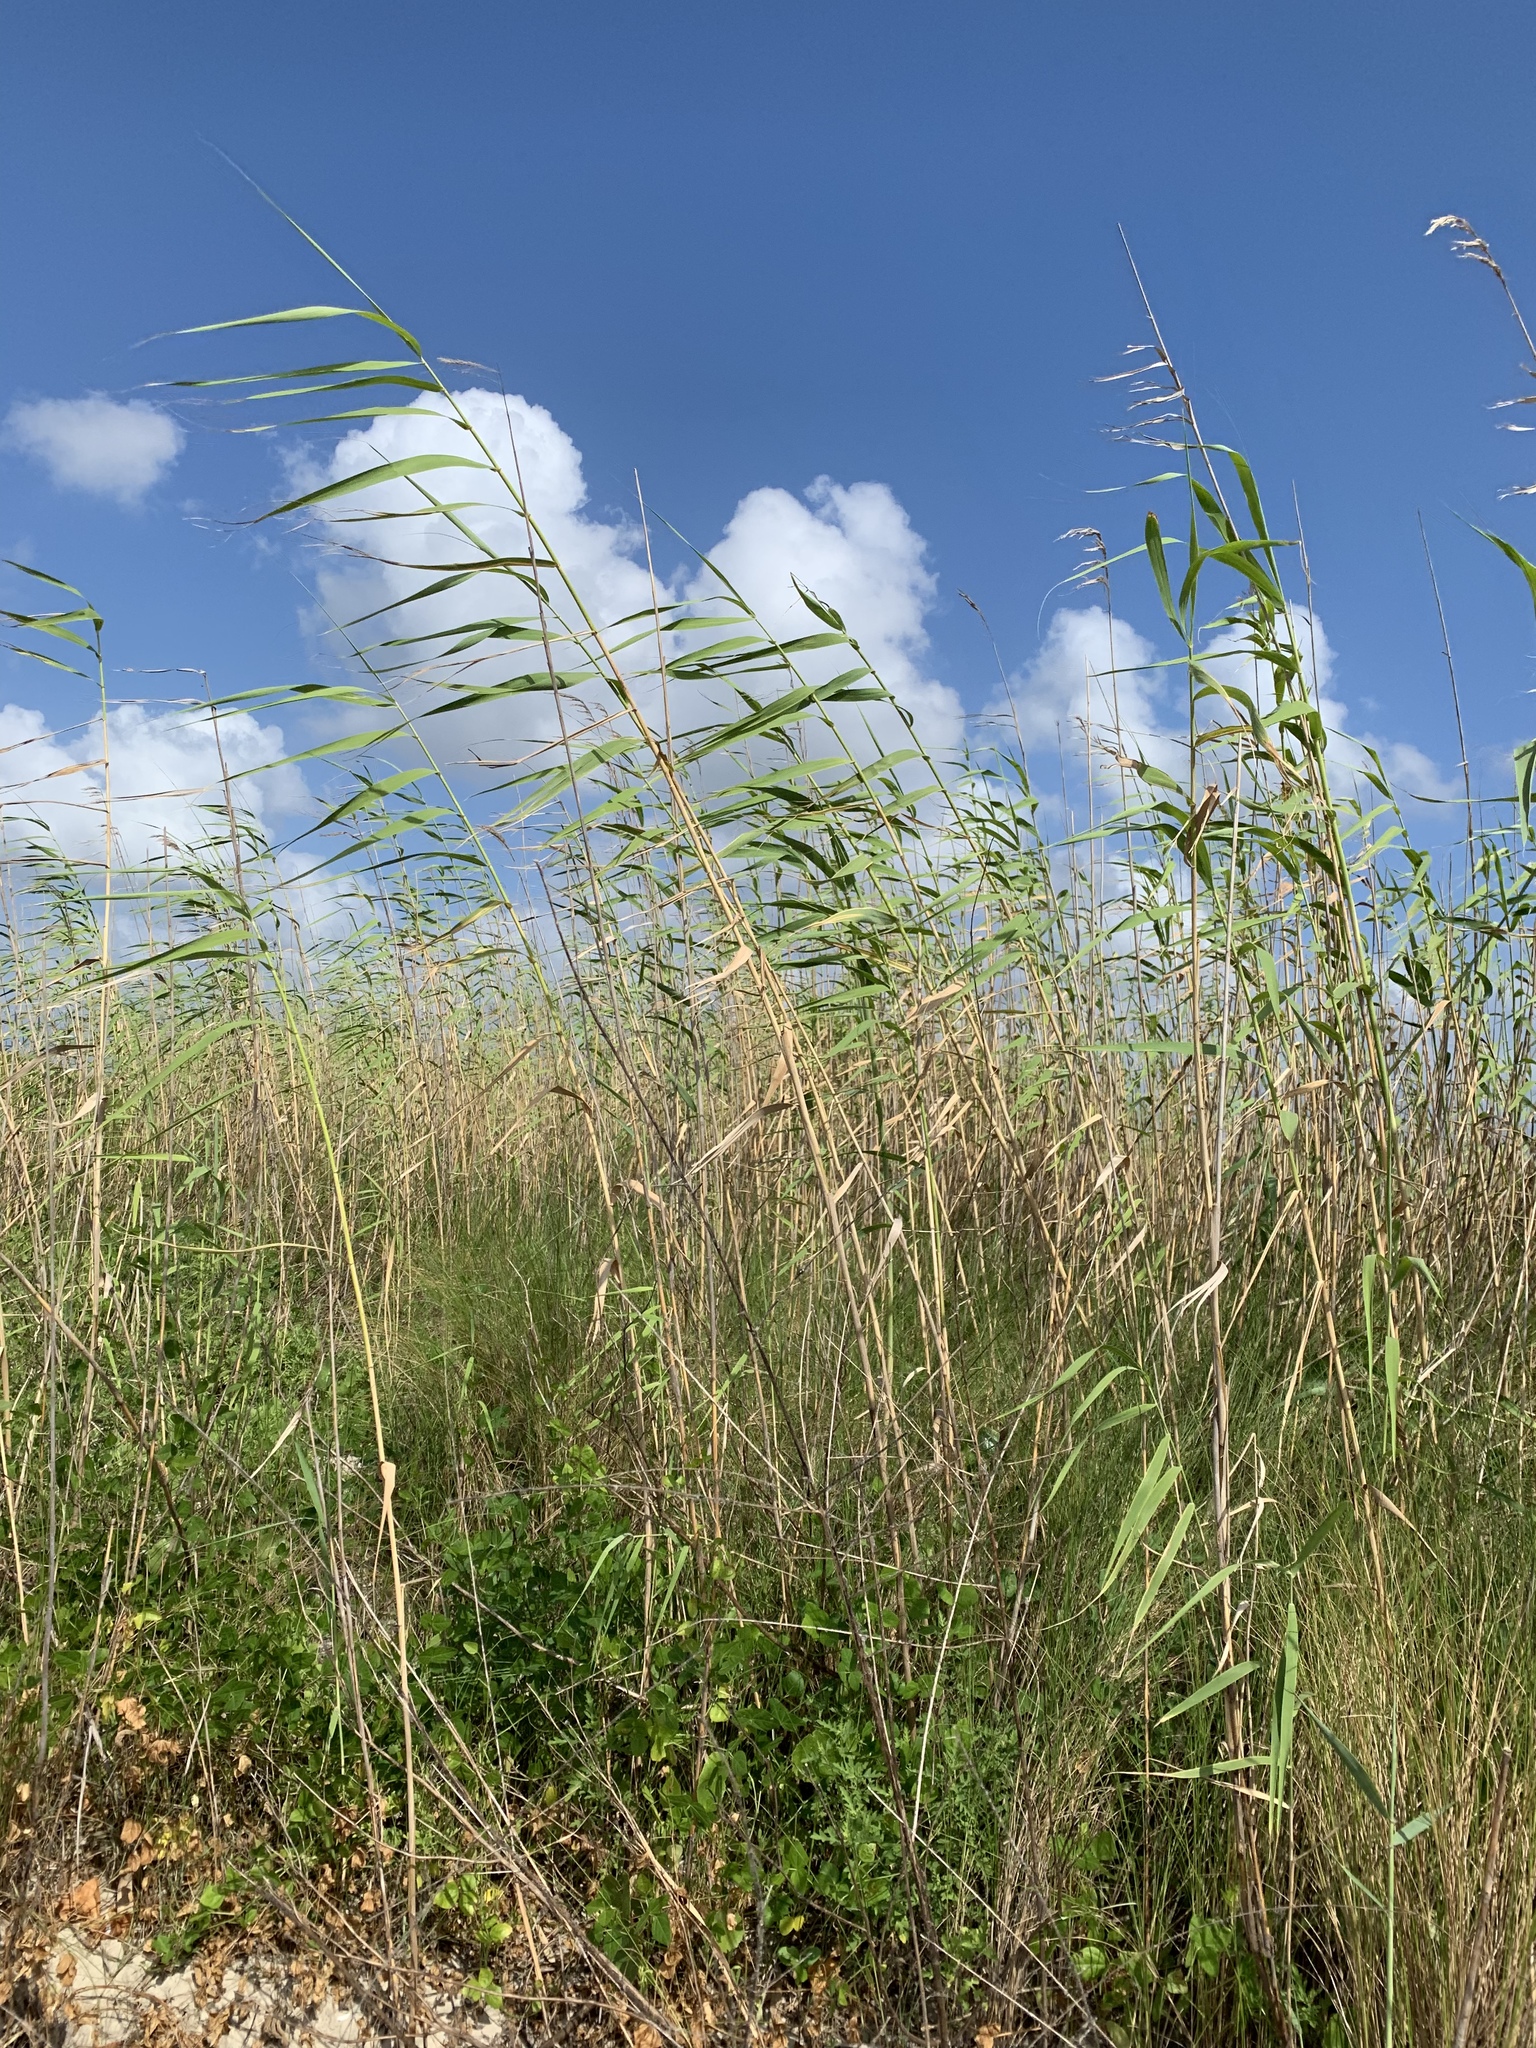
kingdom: Plantae
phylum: Tracheophyta
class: Liliopsida
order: Poales
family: Poaceae
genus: Phragmites
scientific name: Phragmites australis
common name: Common reed
